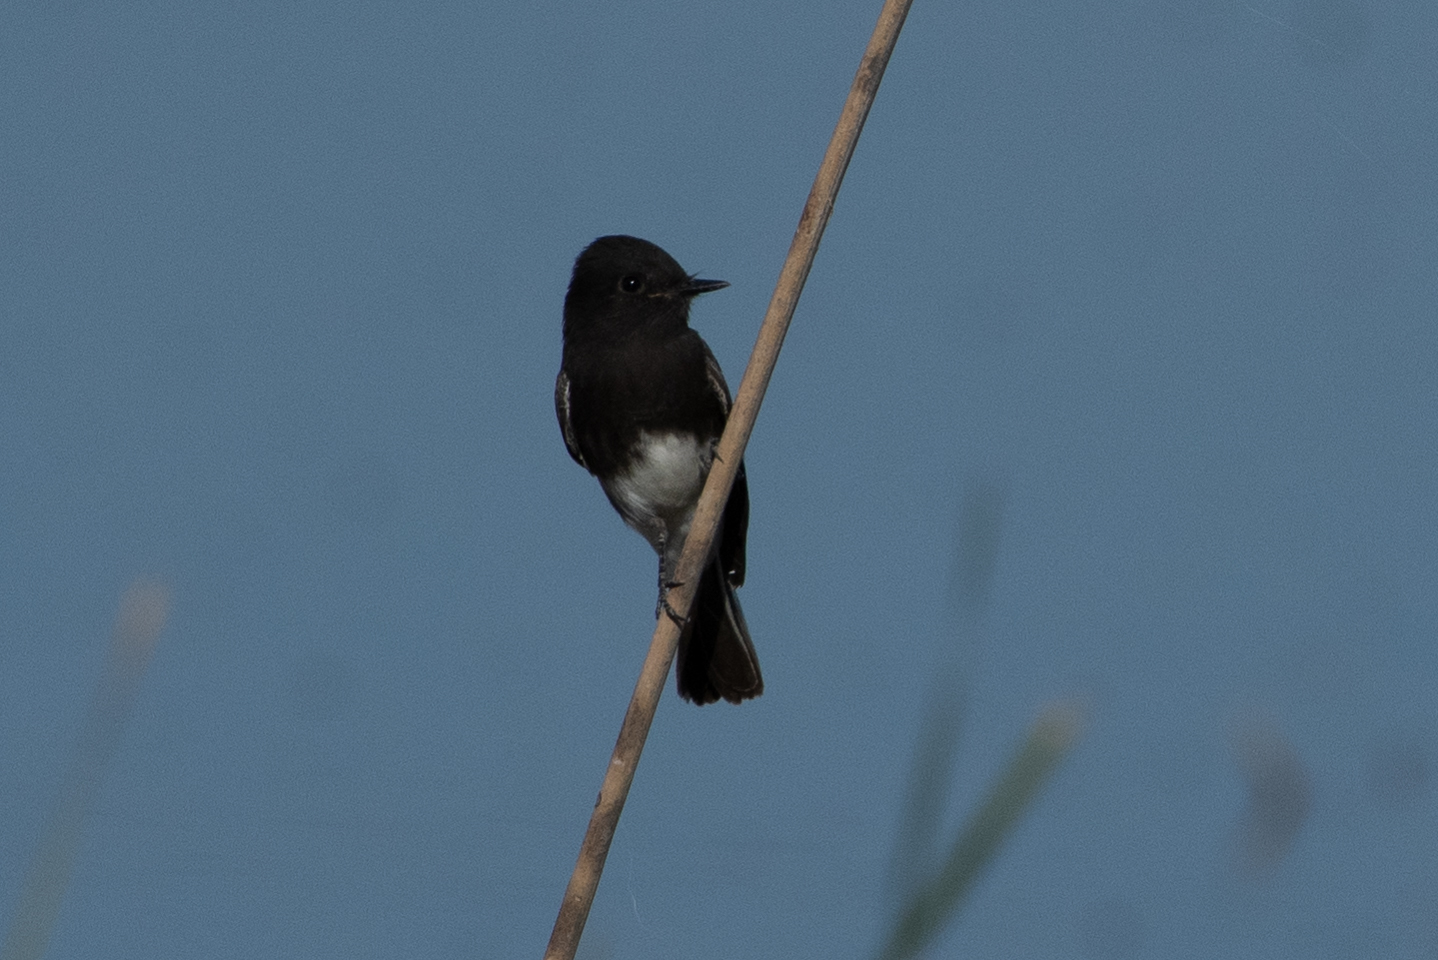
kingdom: Animalia
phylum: Chordata
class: Aves
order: Passeriformes
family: Tyrannidae
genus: Sayornis
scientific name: Sayornis nigricans
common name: Black phoebe
